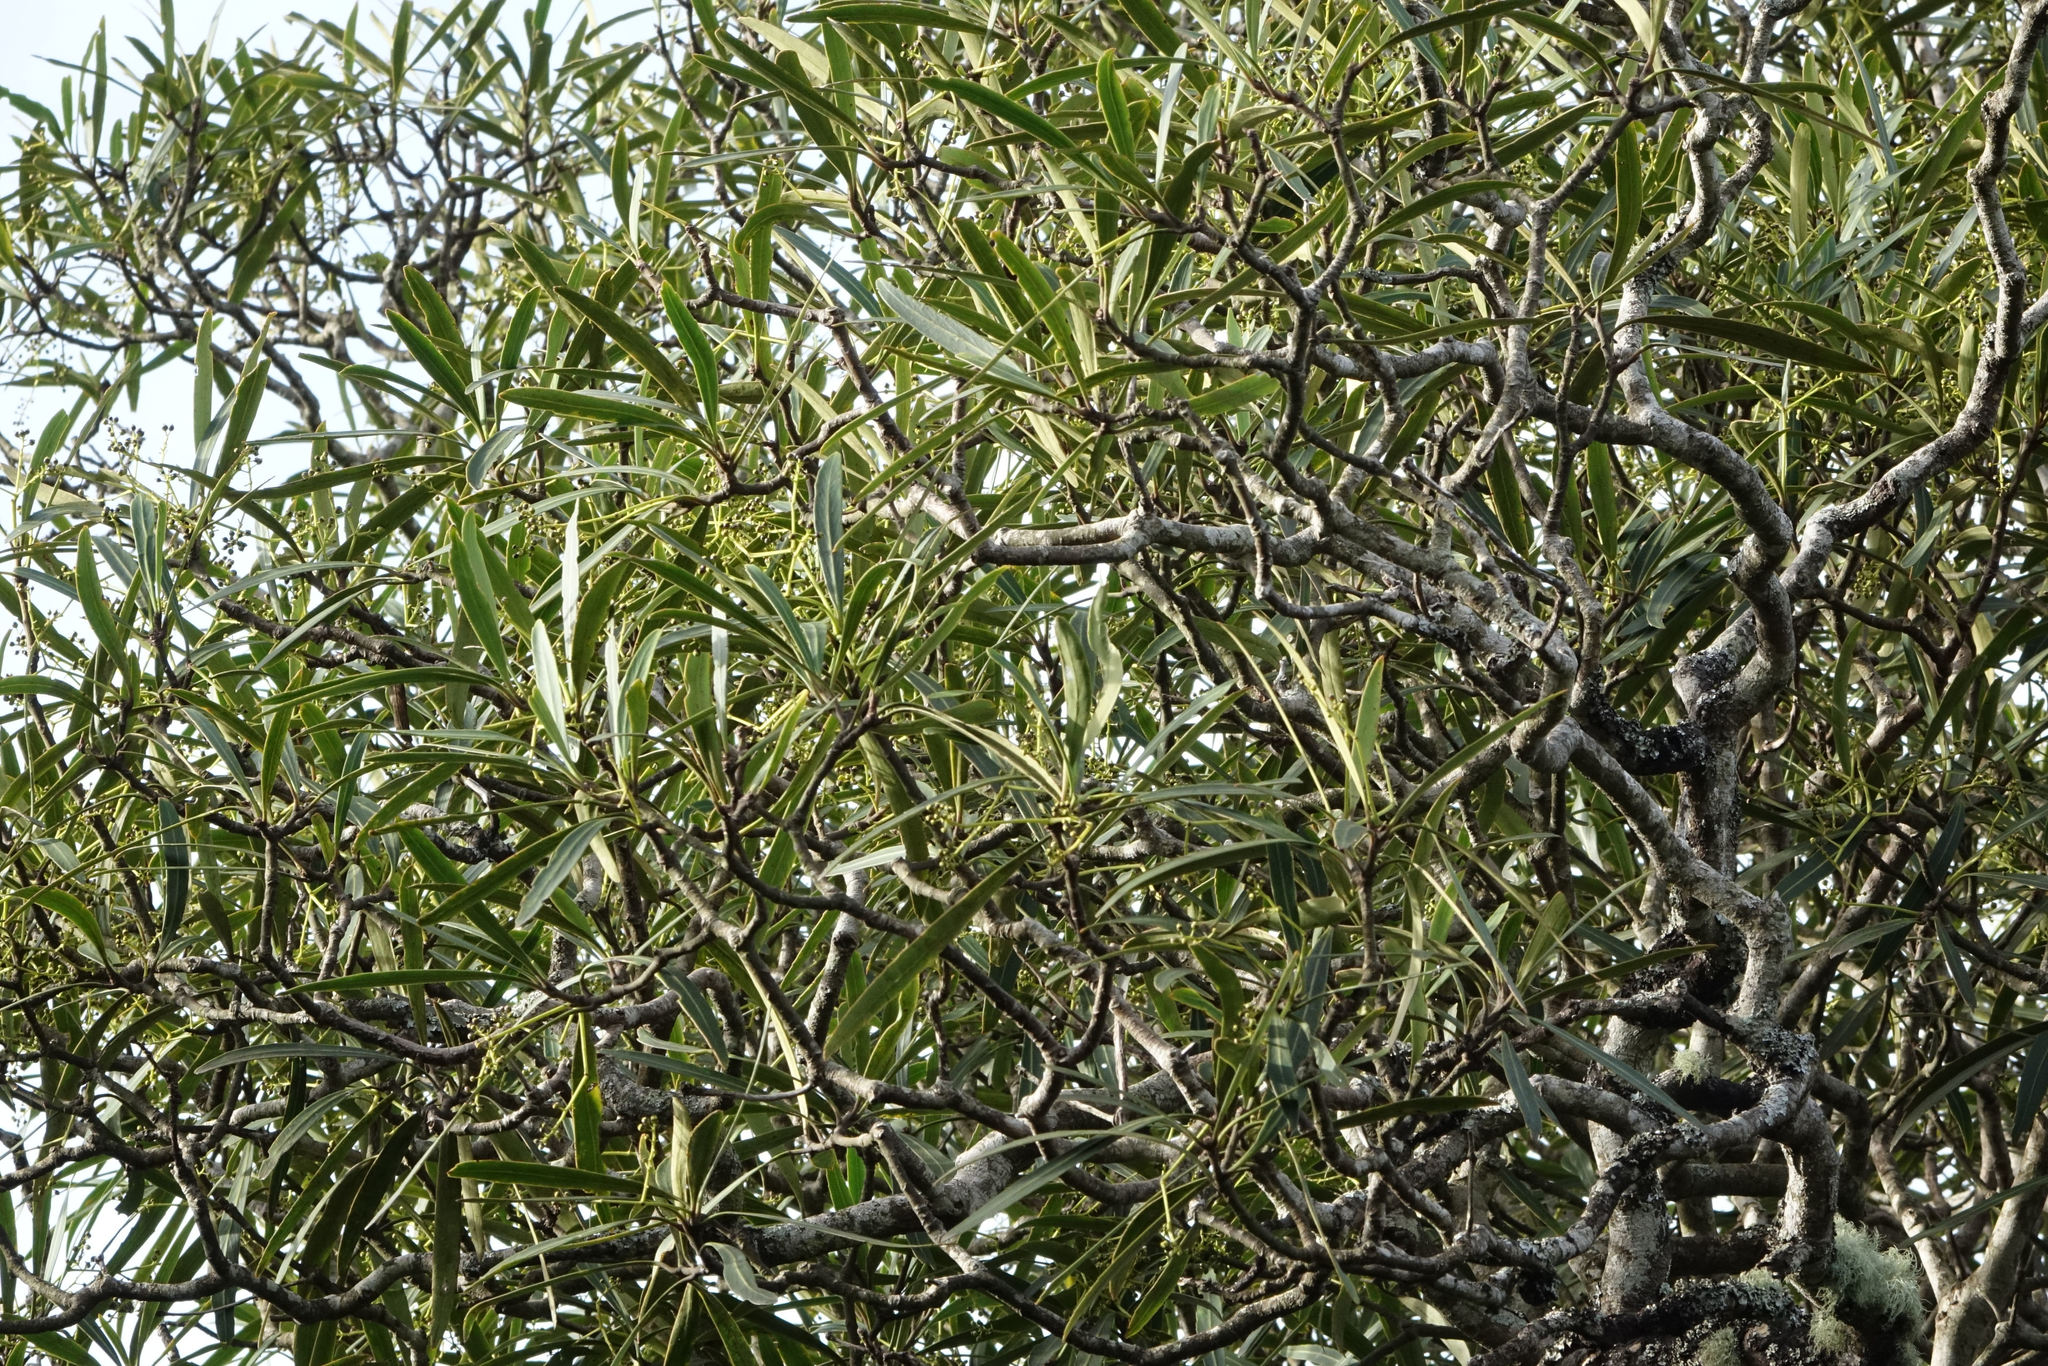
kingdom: Plantae
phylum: Tracheophyta
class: Magnoliopsida
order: Apiales
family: Araliaceae
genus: Pseudopanax
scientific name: Pseudopanax ferox
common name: Fierce lancewood
